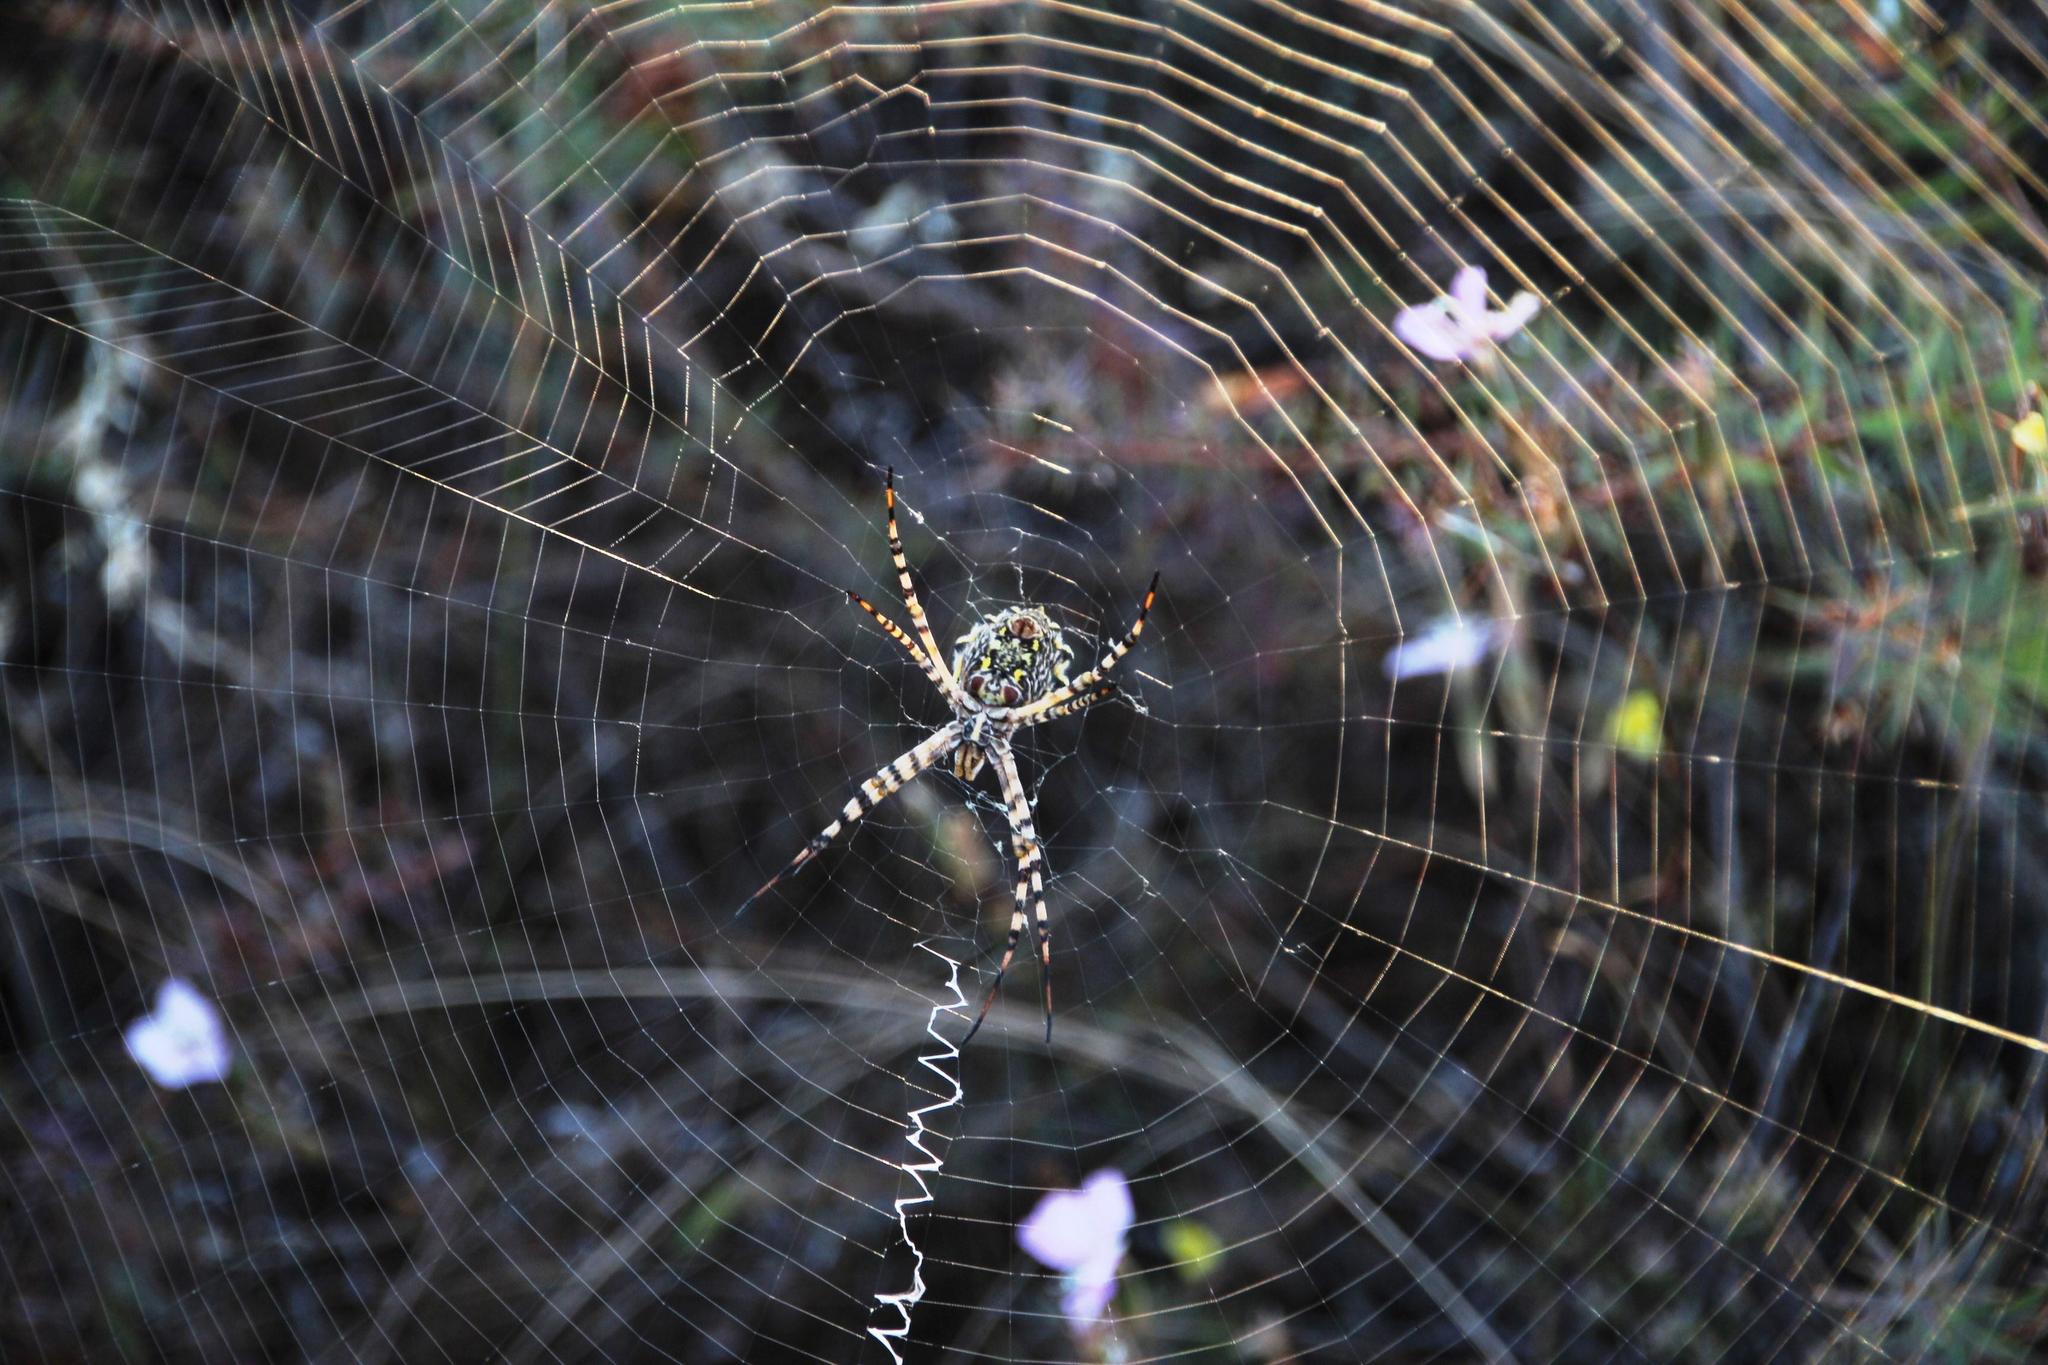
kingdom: Animalia
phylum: Arthropoda
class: Arachnida
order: Araneae
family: Araneidae
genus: Argiope
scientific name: Argiope australis
